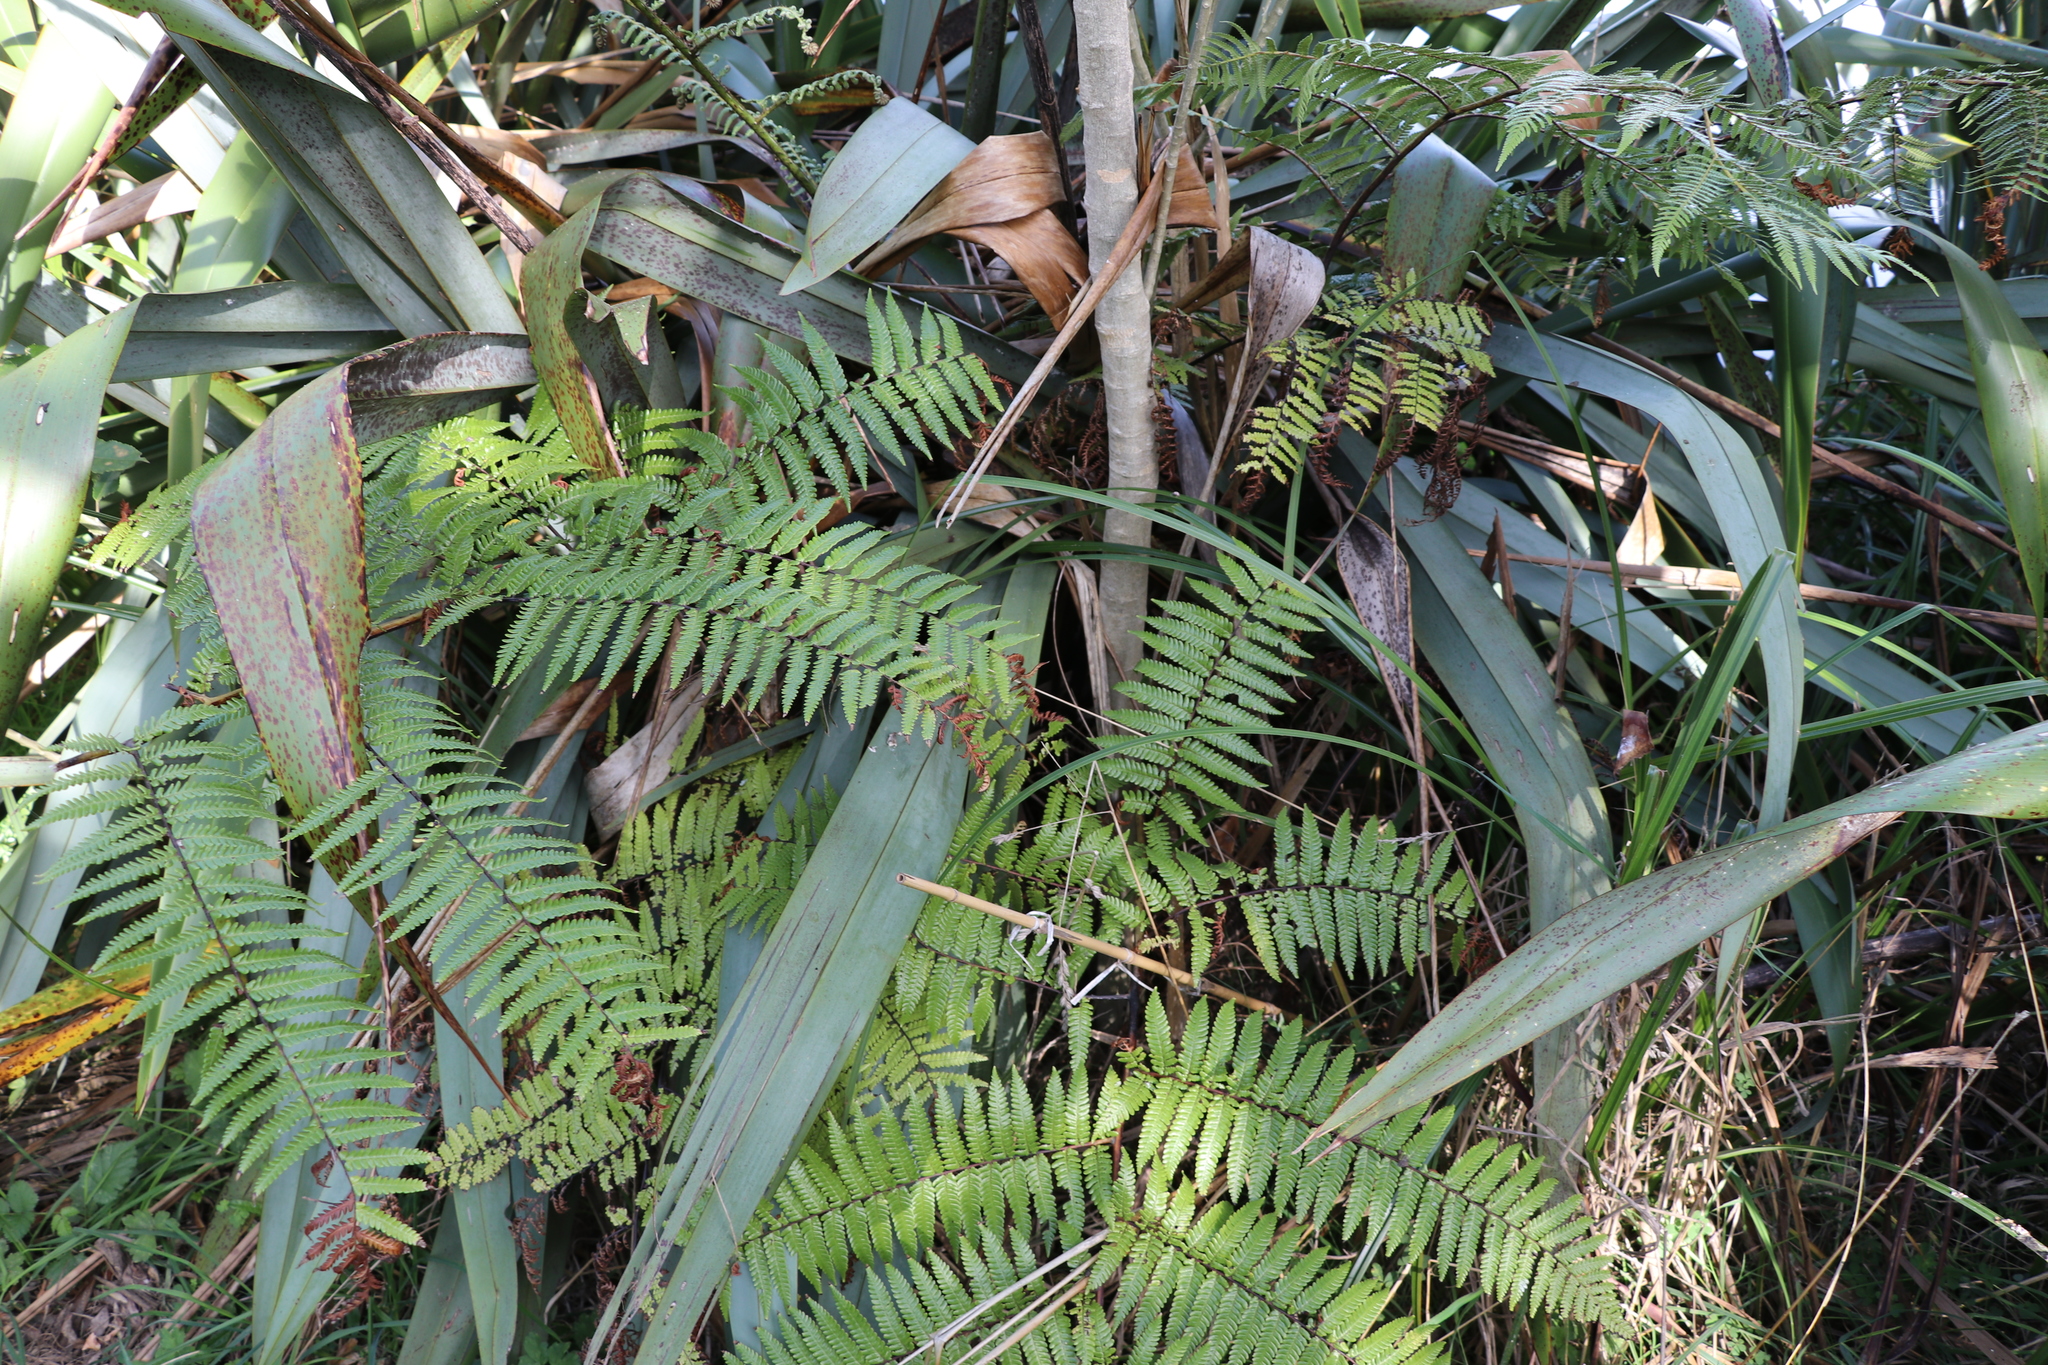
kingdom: Plantae
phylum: Tracheophyta
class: Polypodiopsida
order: Cyatheales
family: Cyatheaceae
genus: Sphaeropteris
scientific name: Sphaeropteris medullaris
